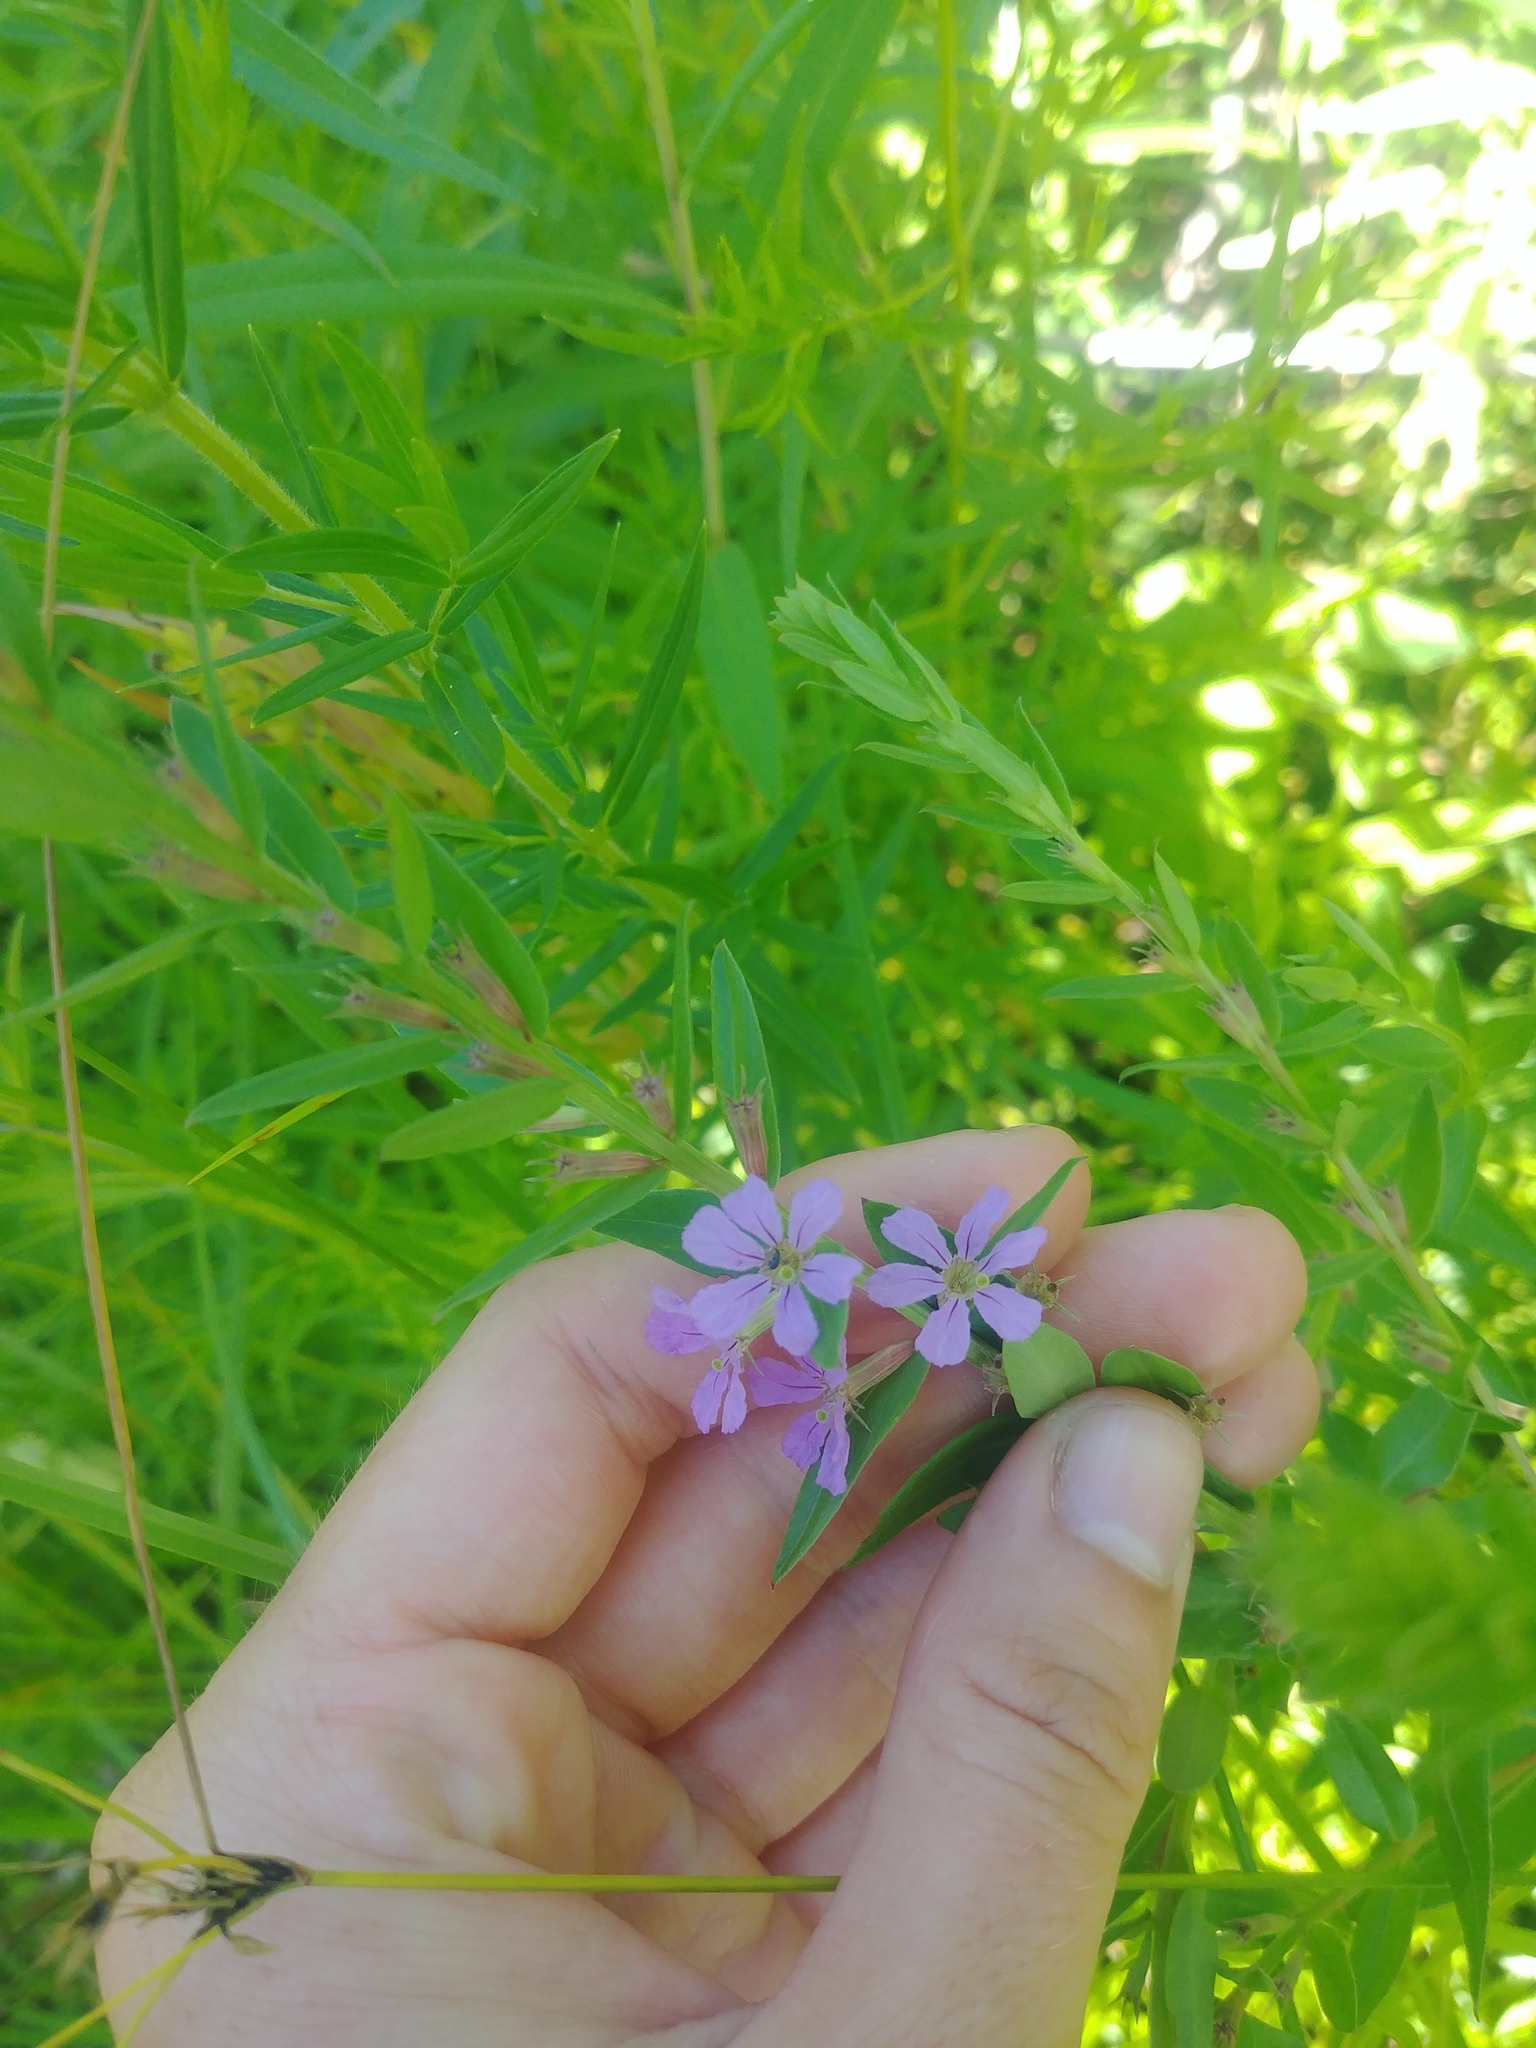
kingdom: Plantae
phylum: Tracheophyta
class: Magnoliopsida
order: Myrtales
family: Lythraceae
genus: Lythrum
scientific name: Lythrum alatum
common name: Winged loosestrife
